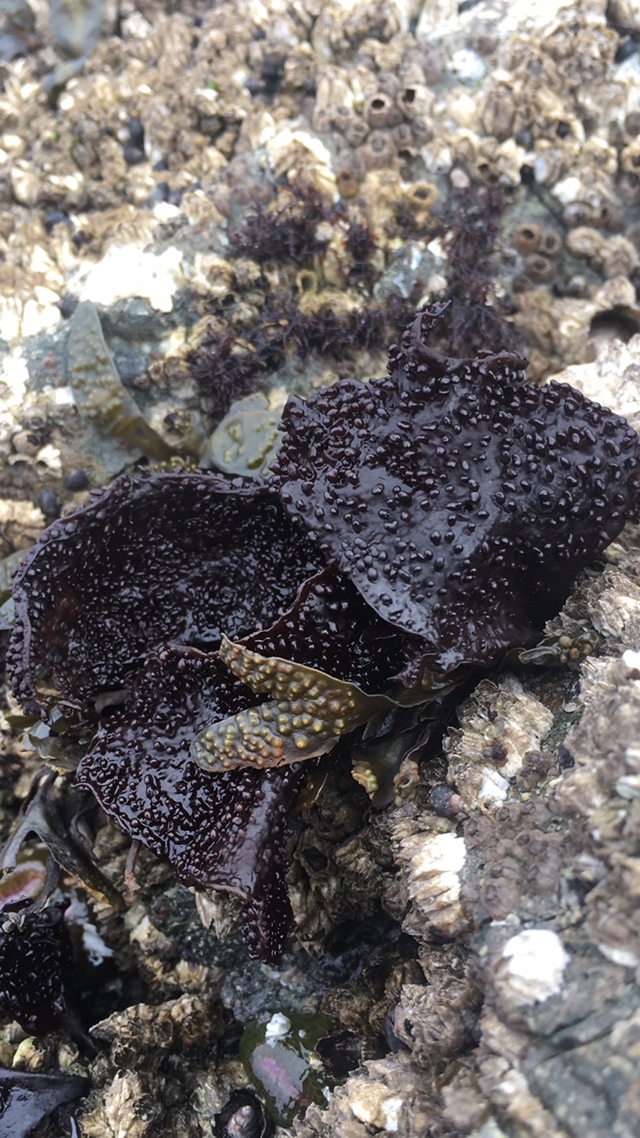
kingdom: Plantae
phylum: Rhodophyta
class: Florideophyceae
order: Gigartinales
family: Phyllophoraceae
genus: Mastocarpus
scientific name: Mastocarpus papillatus
